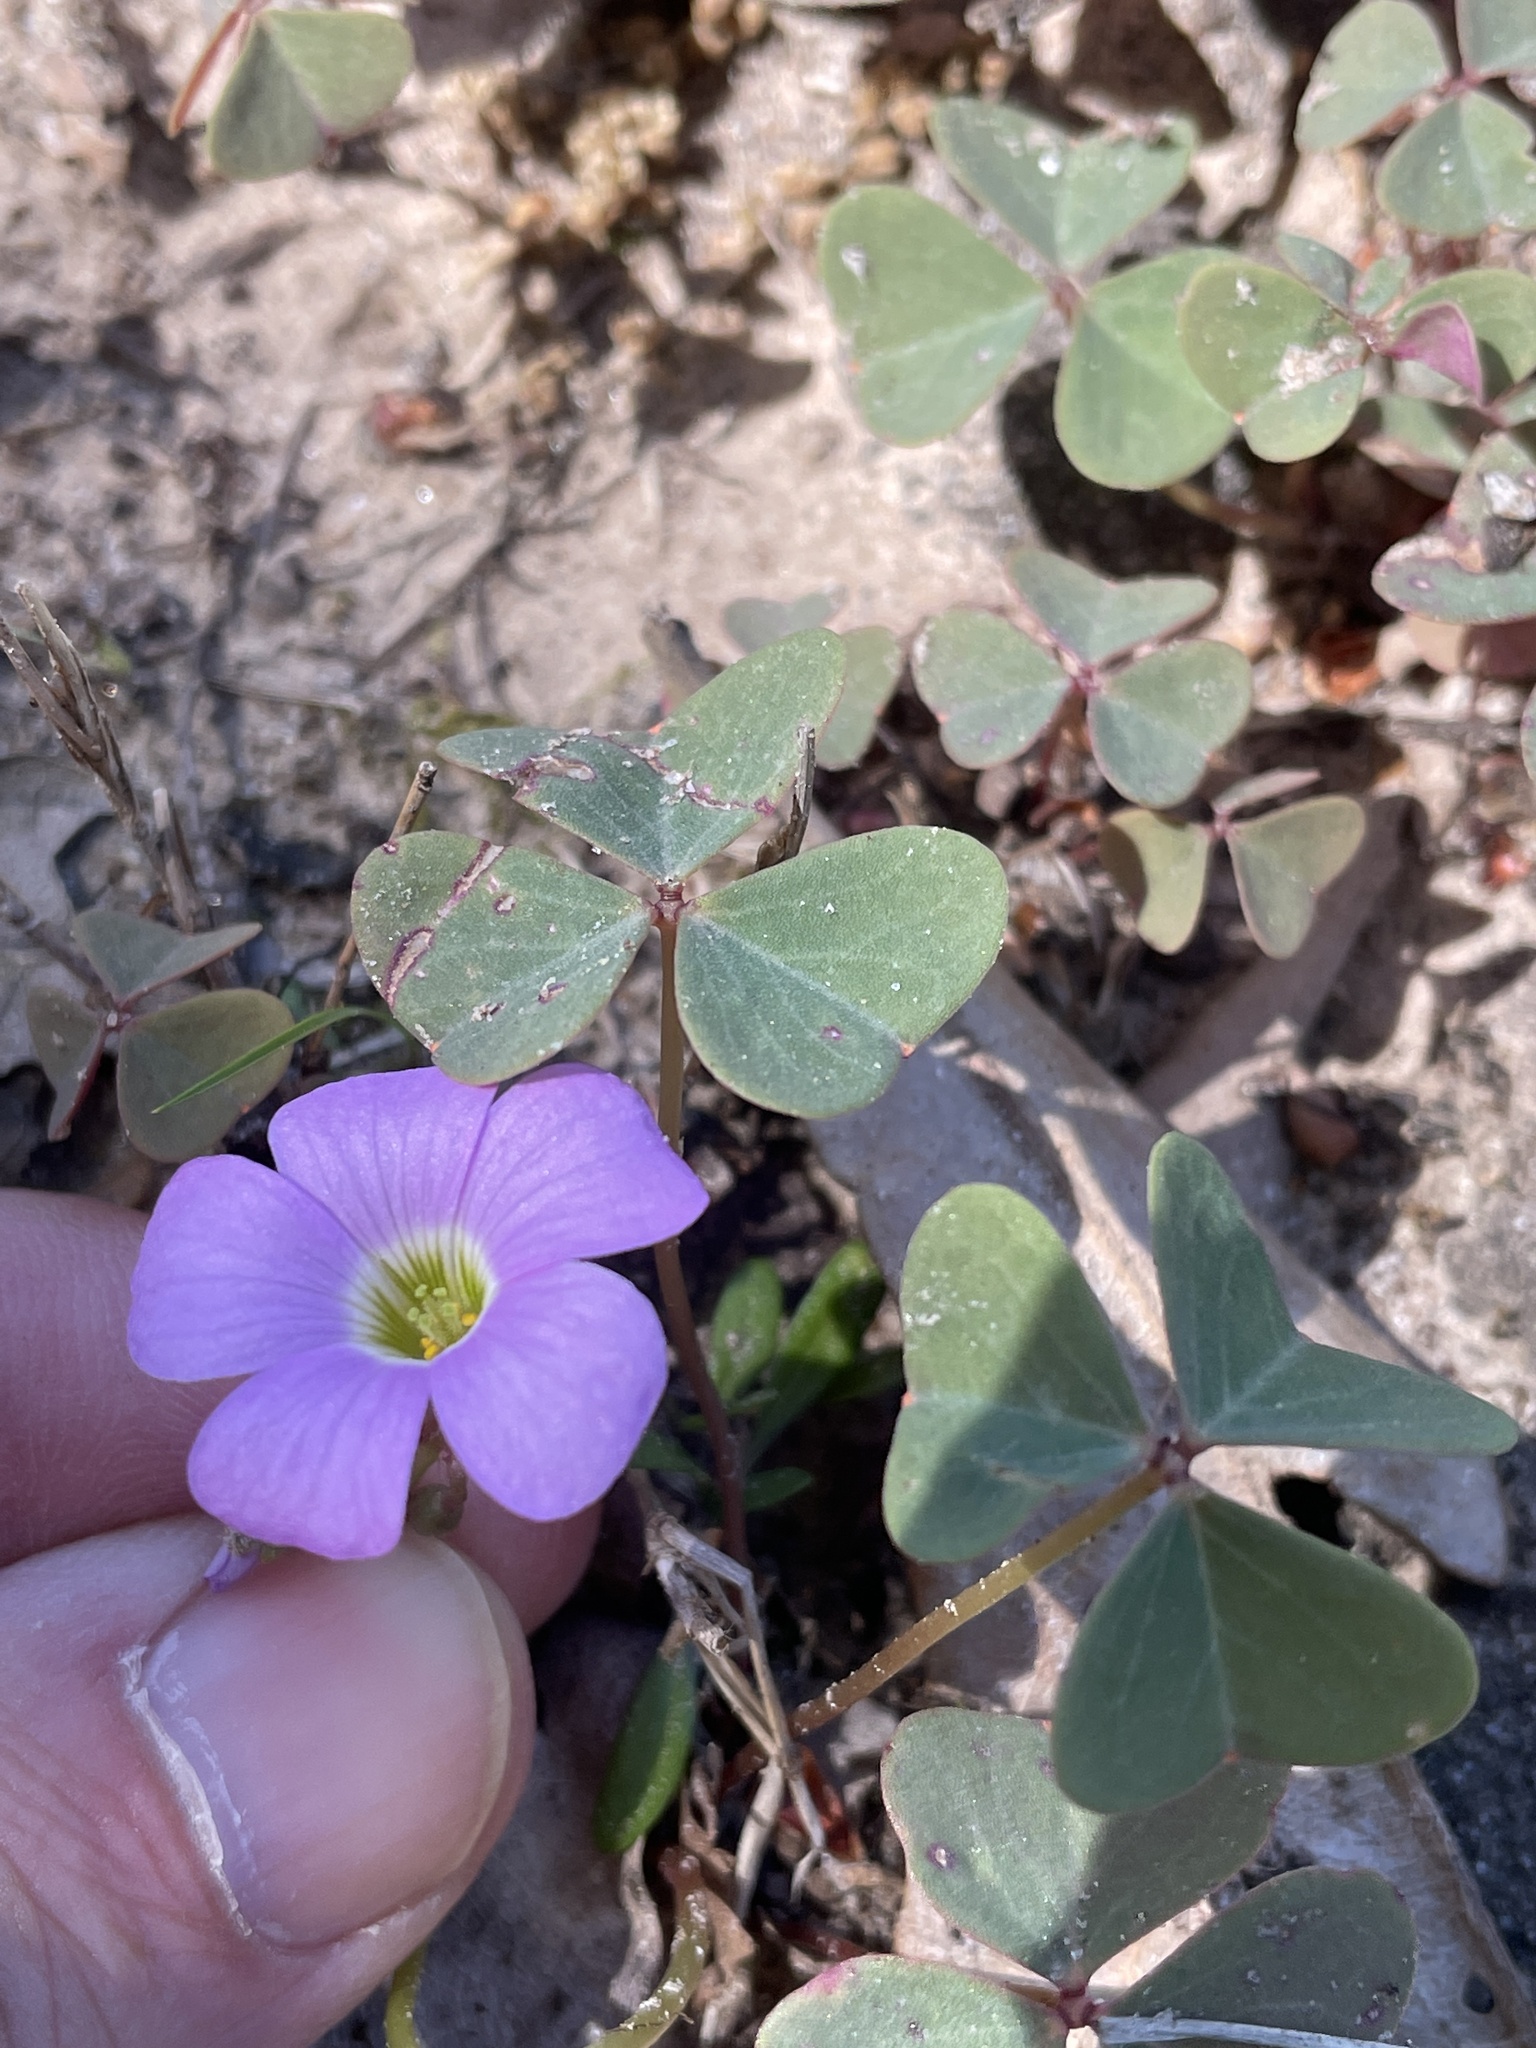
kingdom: Plantae
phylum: Tracheophyta
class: Magnoliopsida
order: Oxalidales
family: Oxalidaceae
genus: Oxalis
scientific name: Oxalis violacea
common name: Violet wood-sorrel
